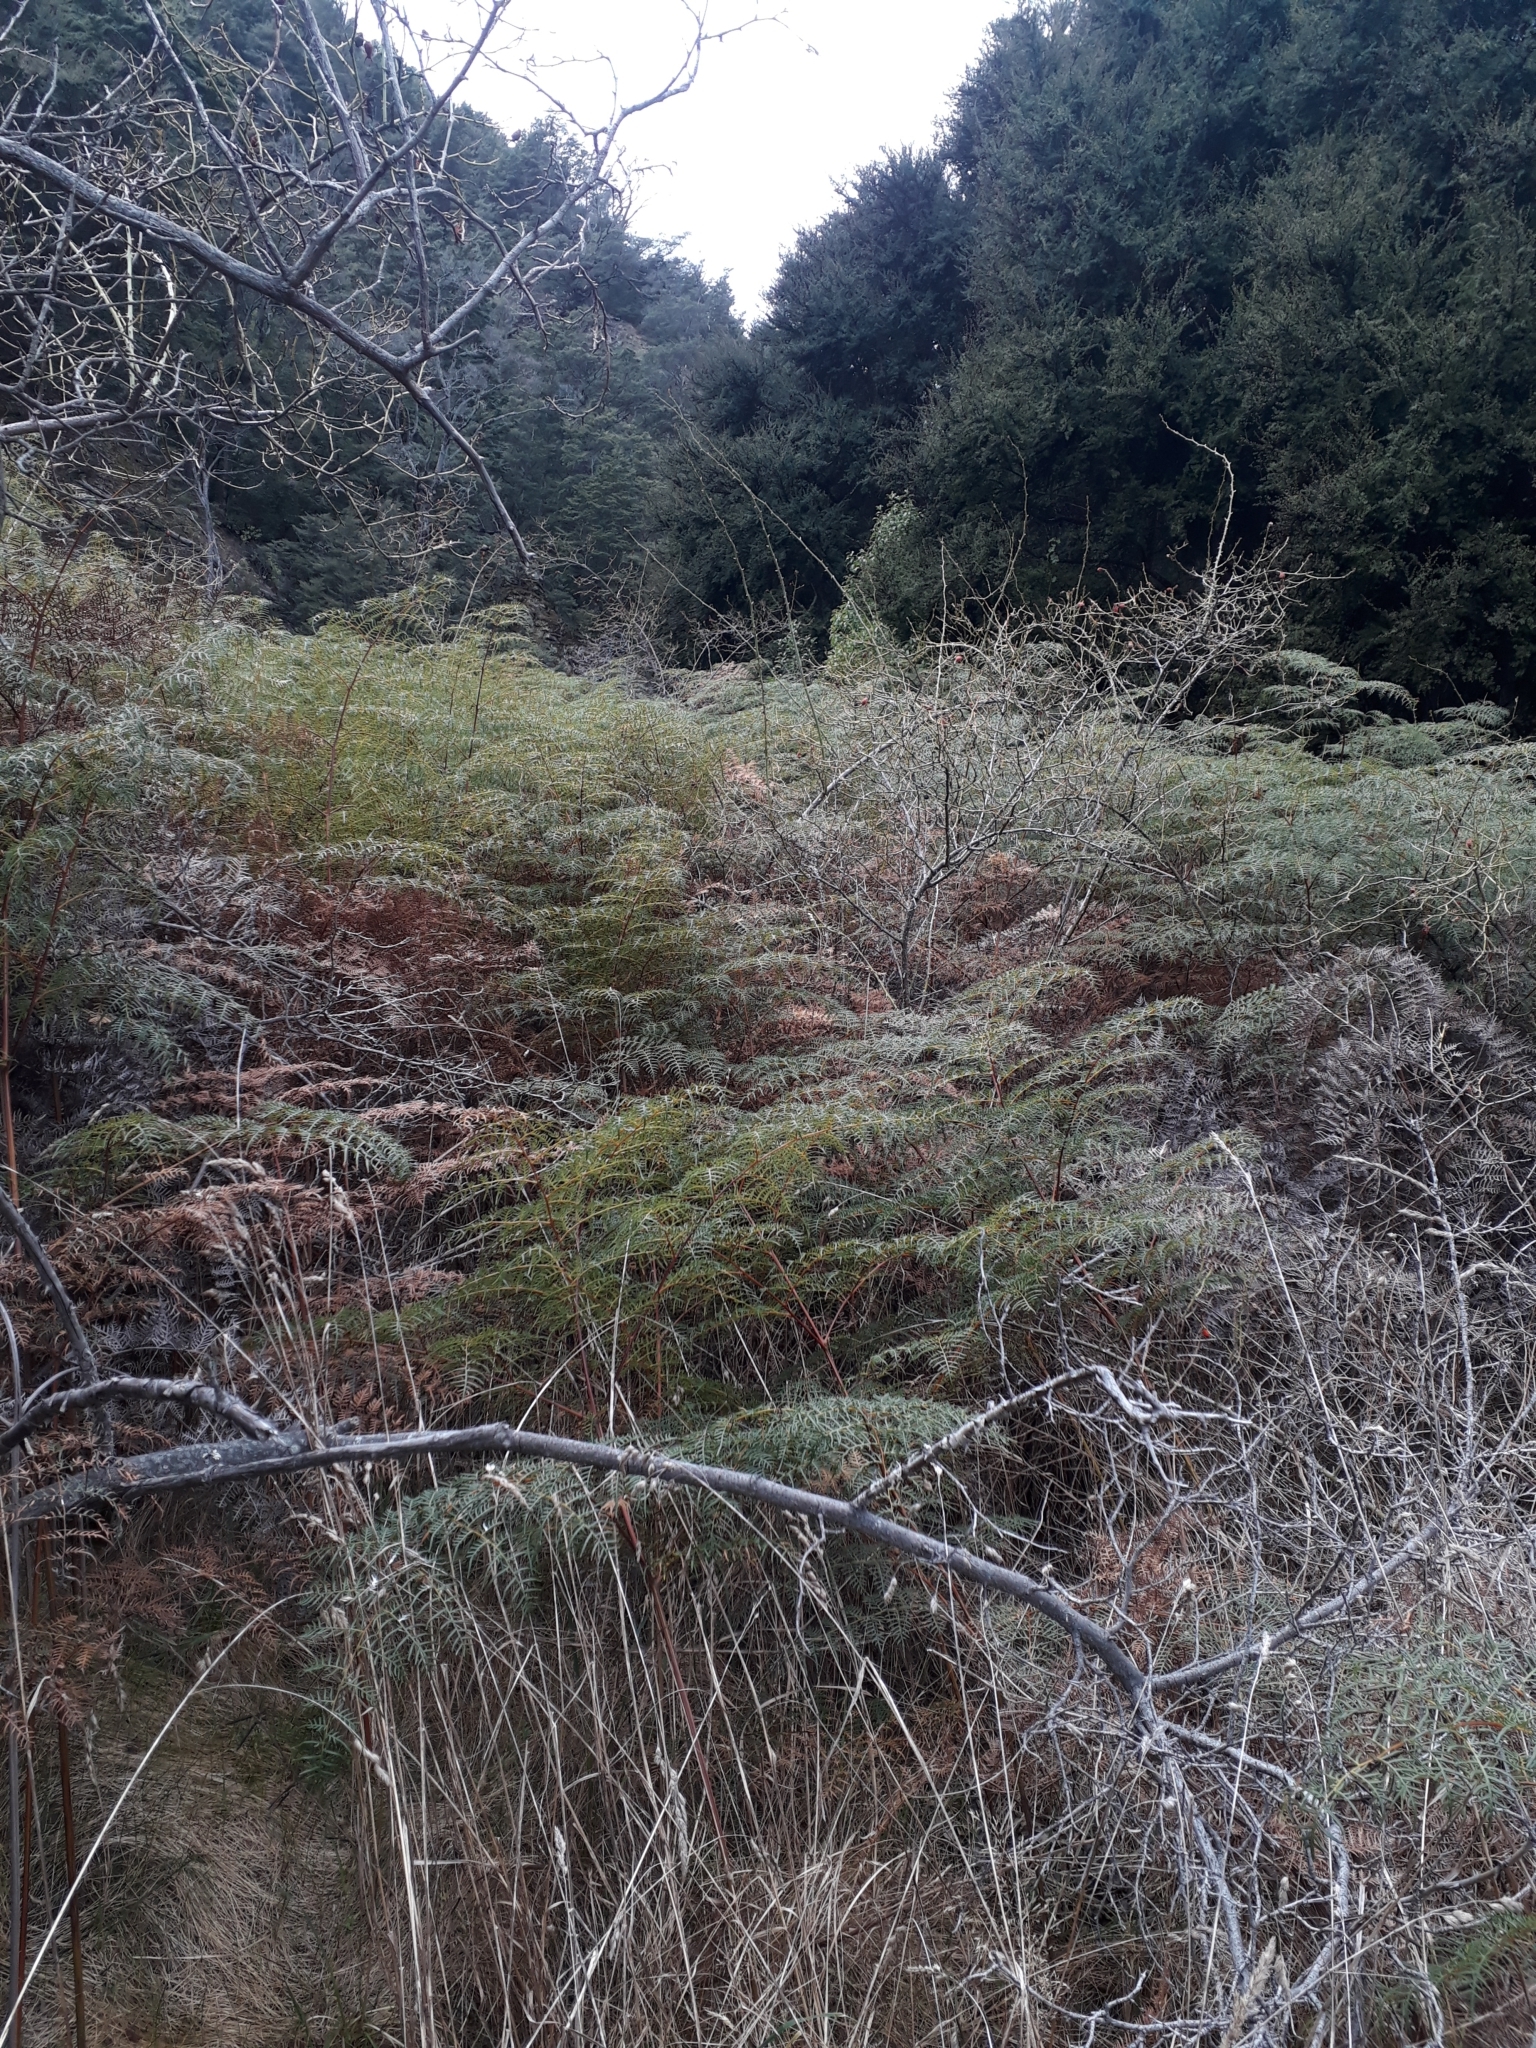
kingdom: Plantae
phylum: Tracheophyta
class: Polypodiopsida
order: Polypodiales
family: Dennstaedtiaceae
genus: Pteridium
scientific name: Pteridium esculentum
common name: Bracken fern
